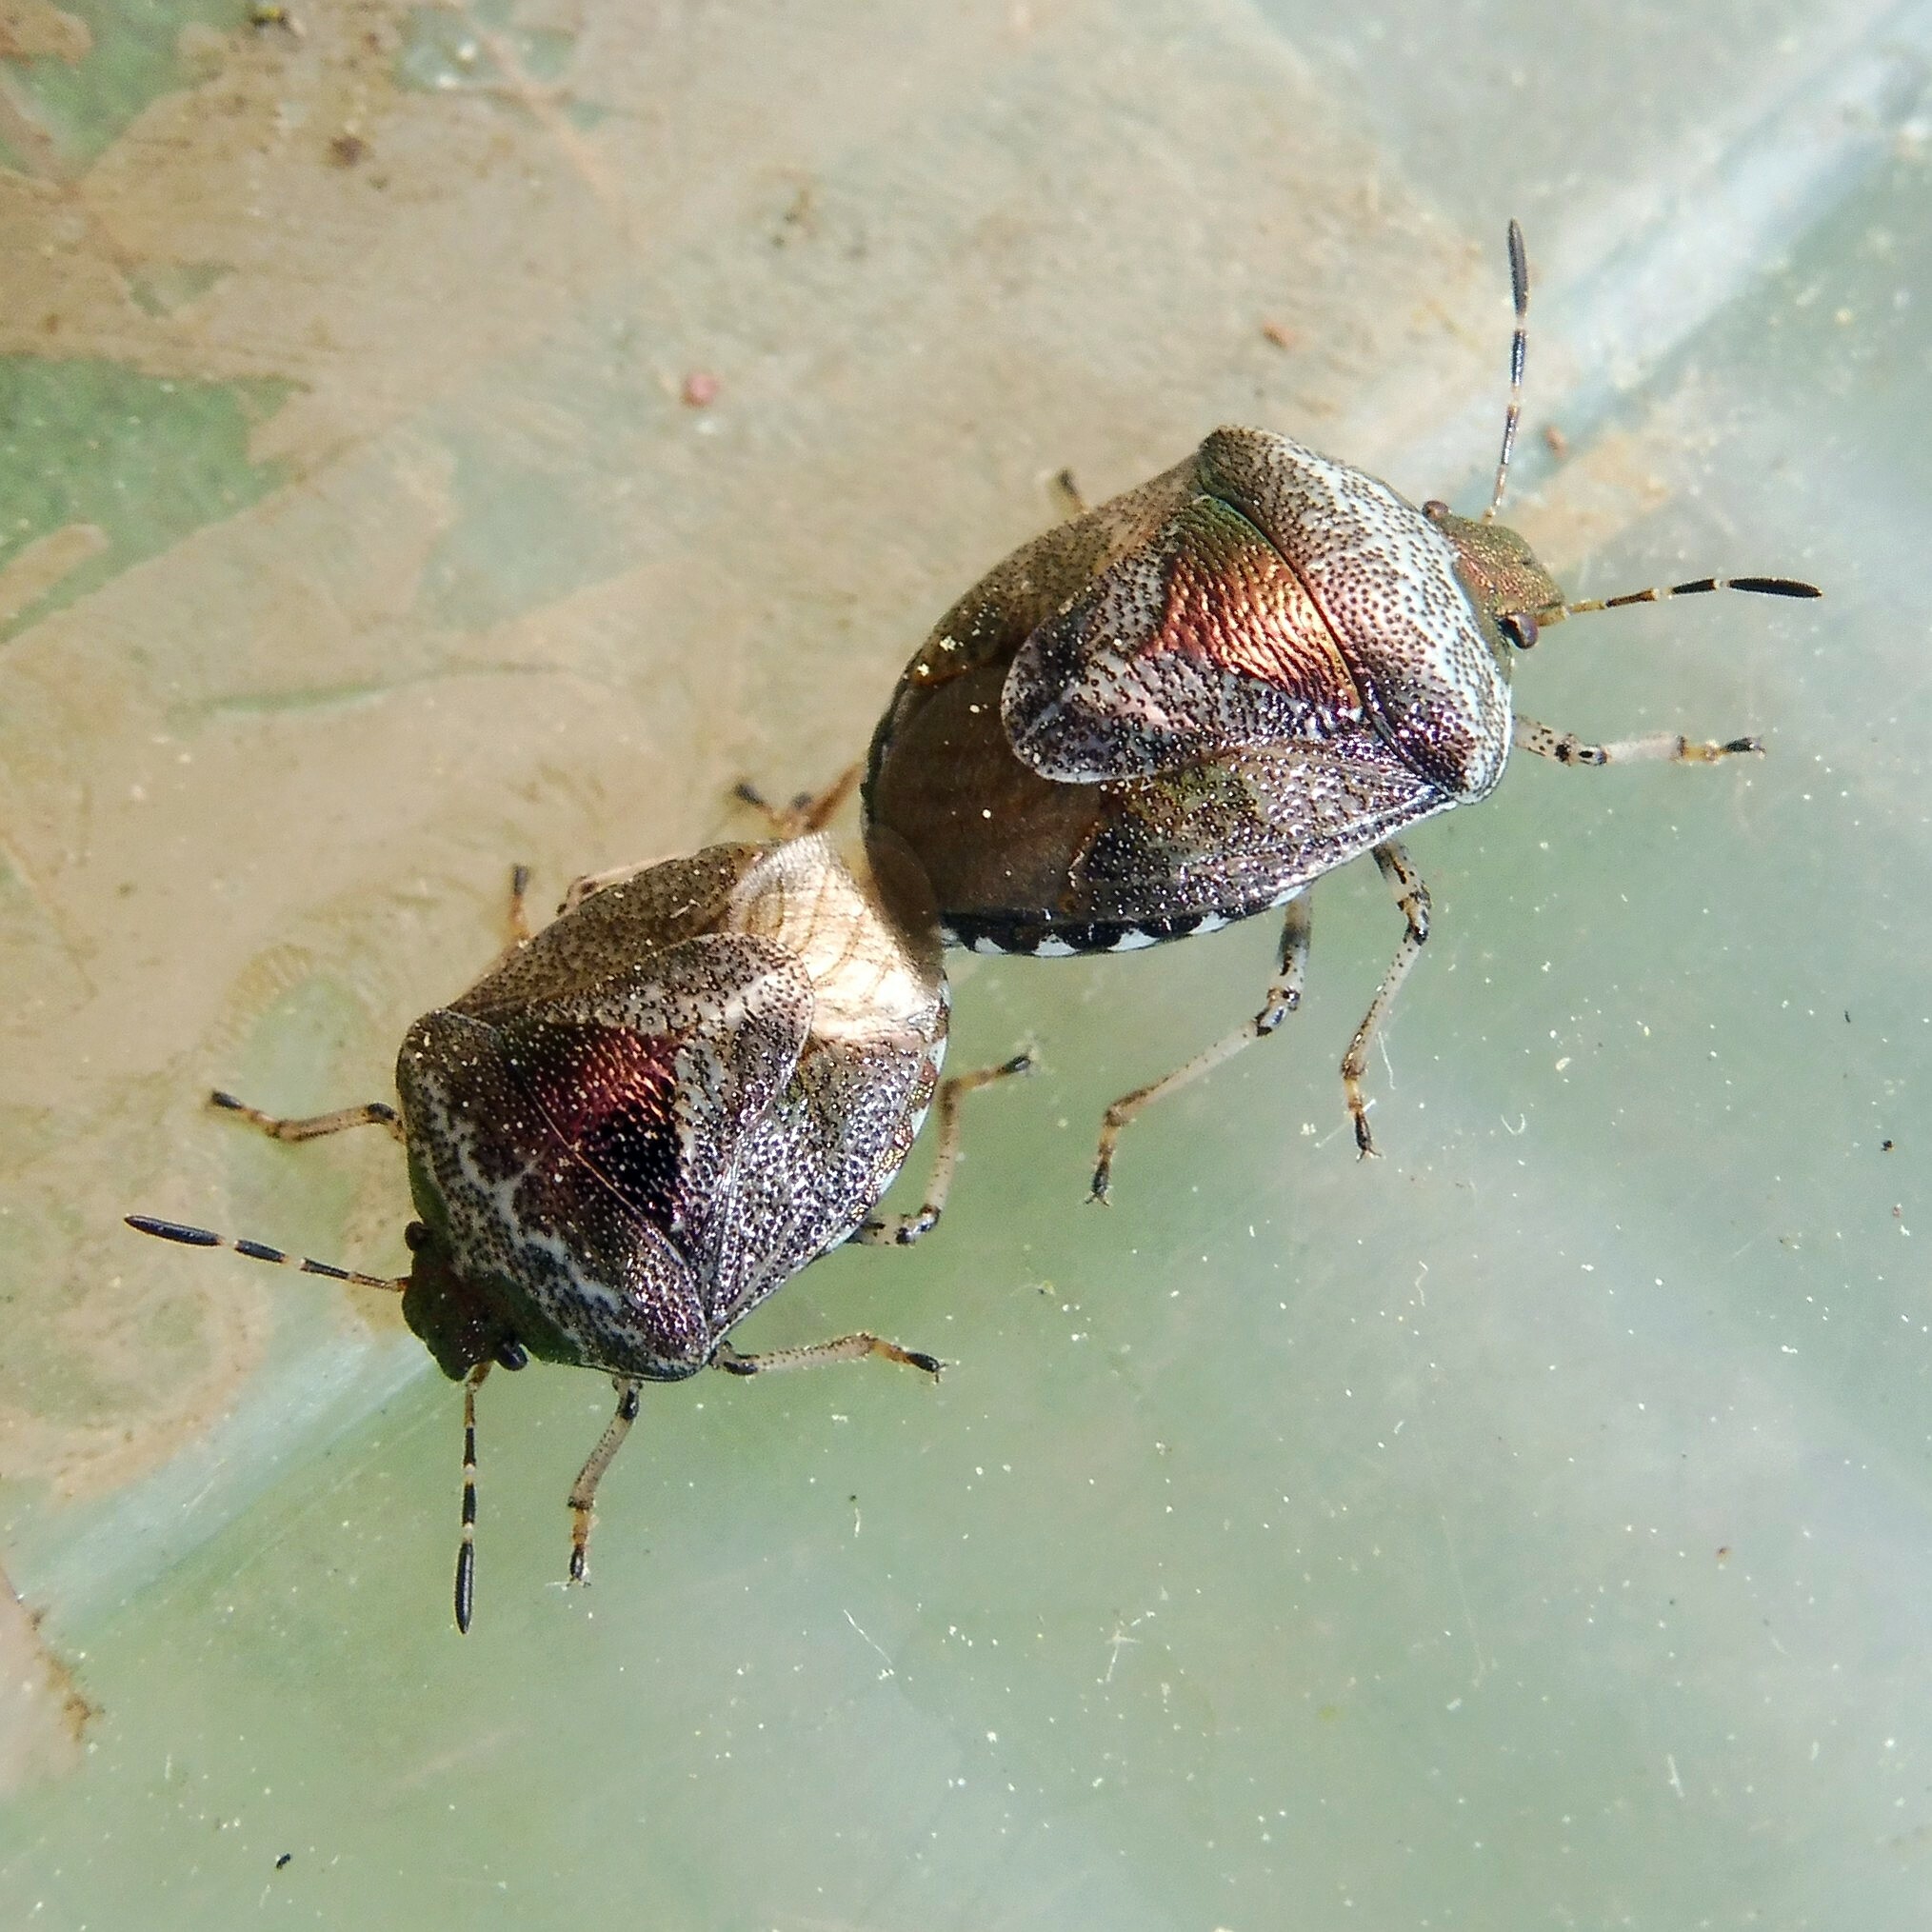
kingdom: Animalia
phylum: Arthropoda
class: Insecta
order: Hemiptera
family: Pentatomidae
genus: Eysarcoris
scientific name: Eysarcoris venustissimus
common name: Woundwort shieldbug
